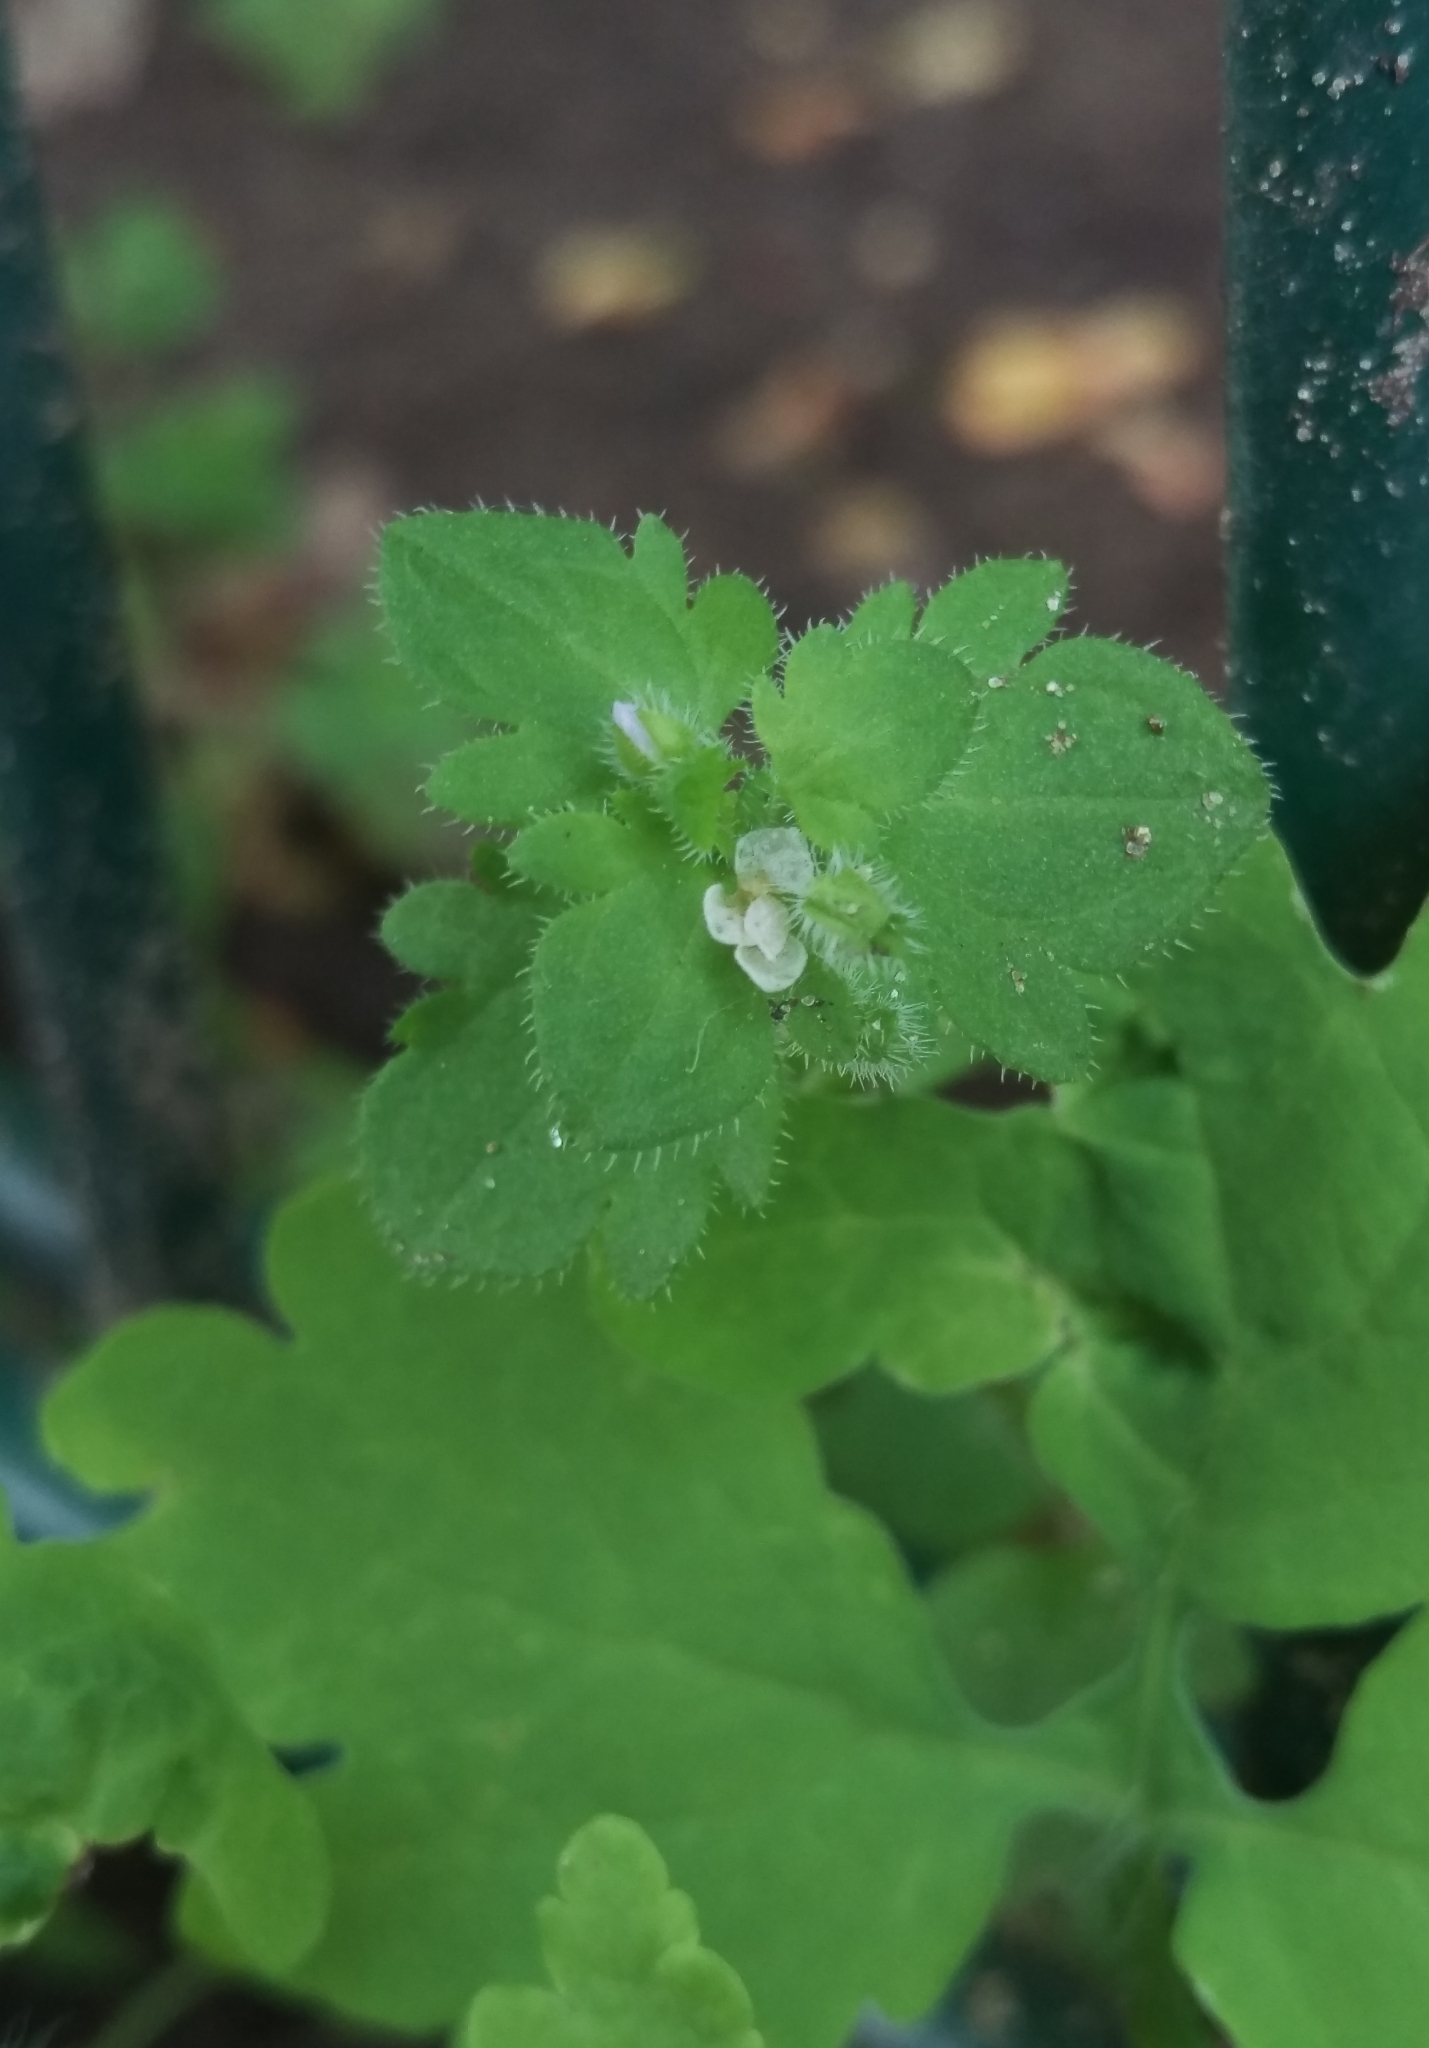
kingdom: Plantae
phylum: Tracheophyta
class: Magnoliopsida
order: Lamiales
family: Plantaginaceae
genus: Veronica
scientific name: Veronica sublobata
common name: False ivy-leaved speedwell
